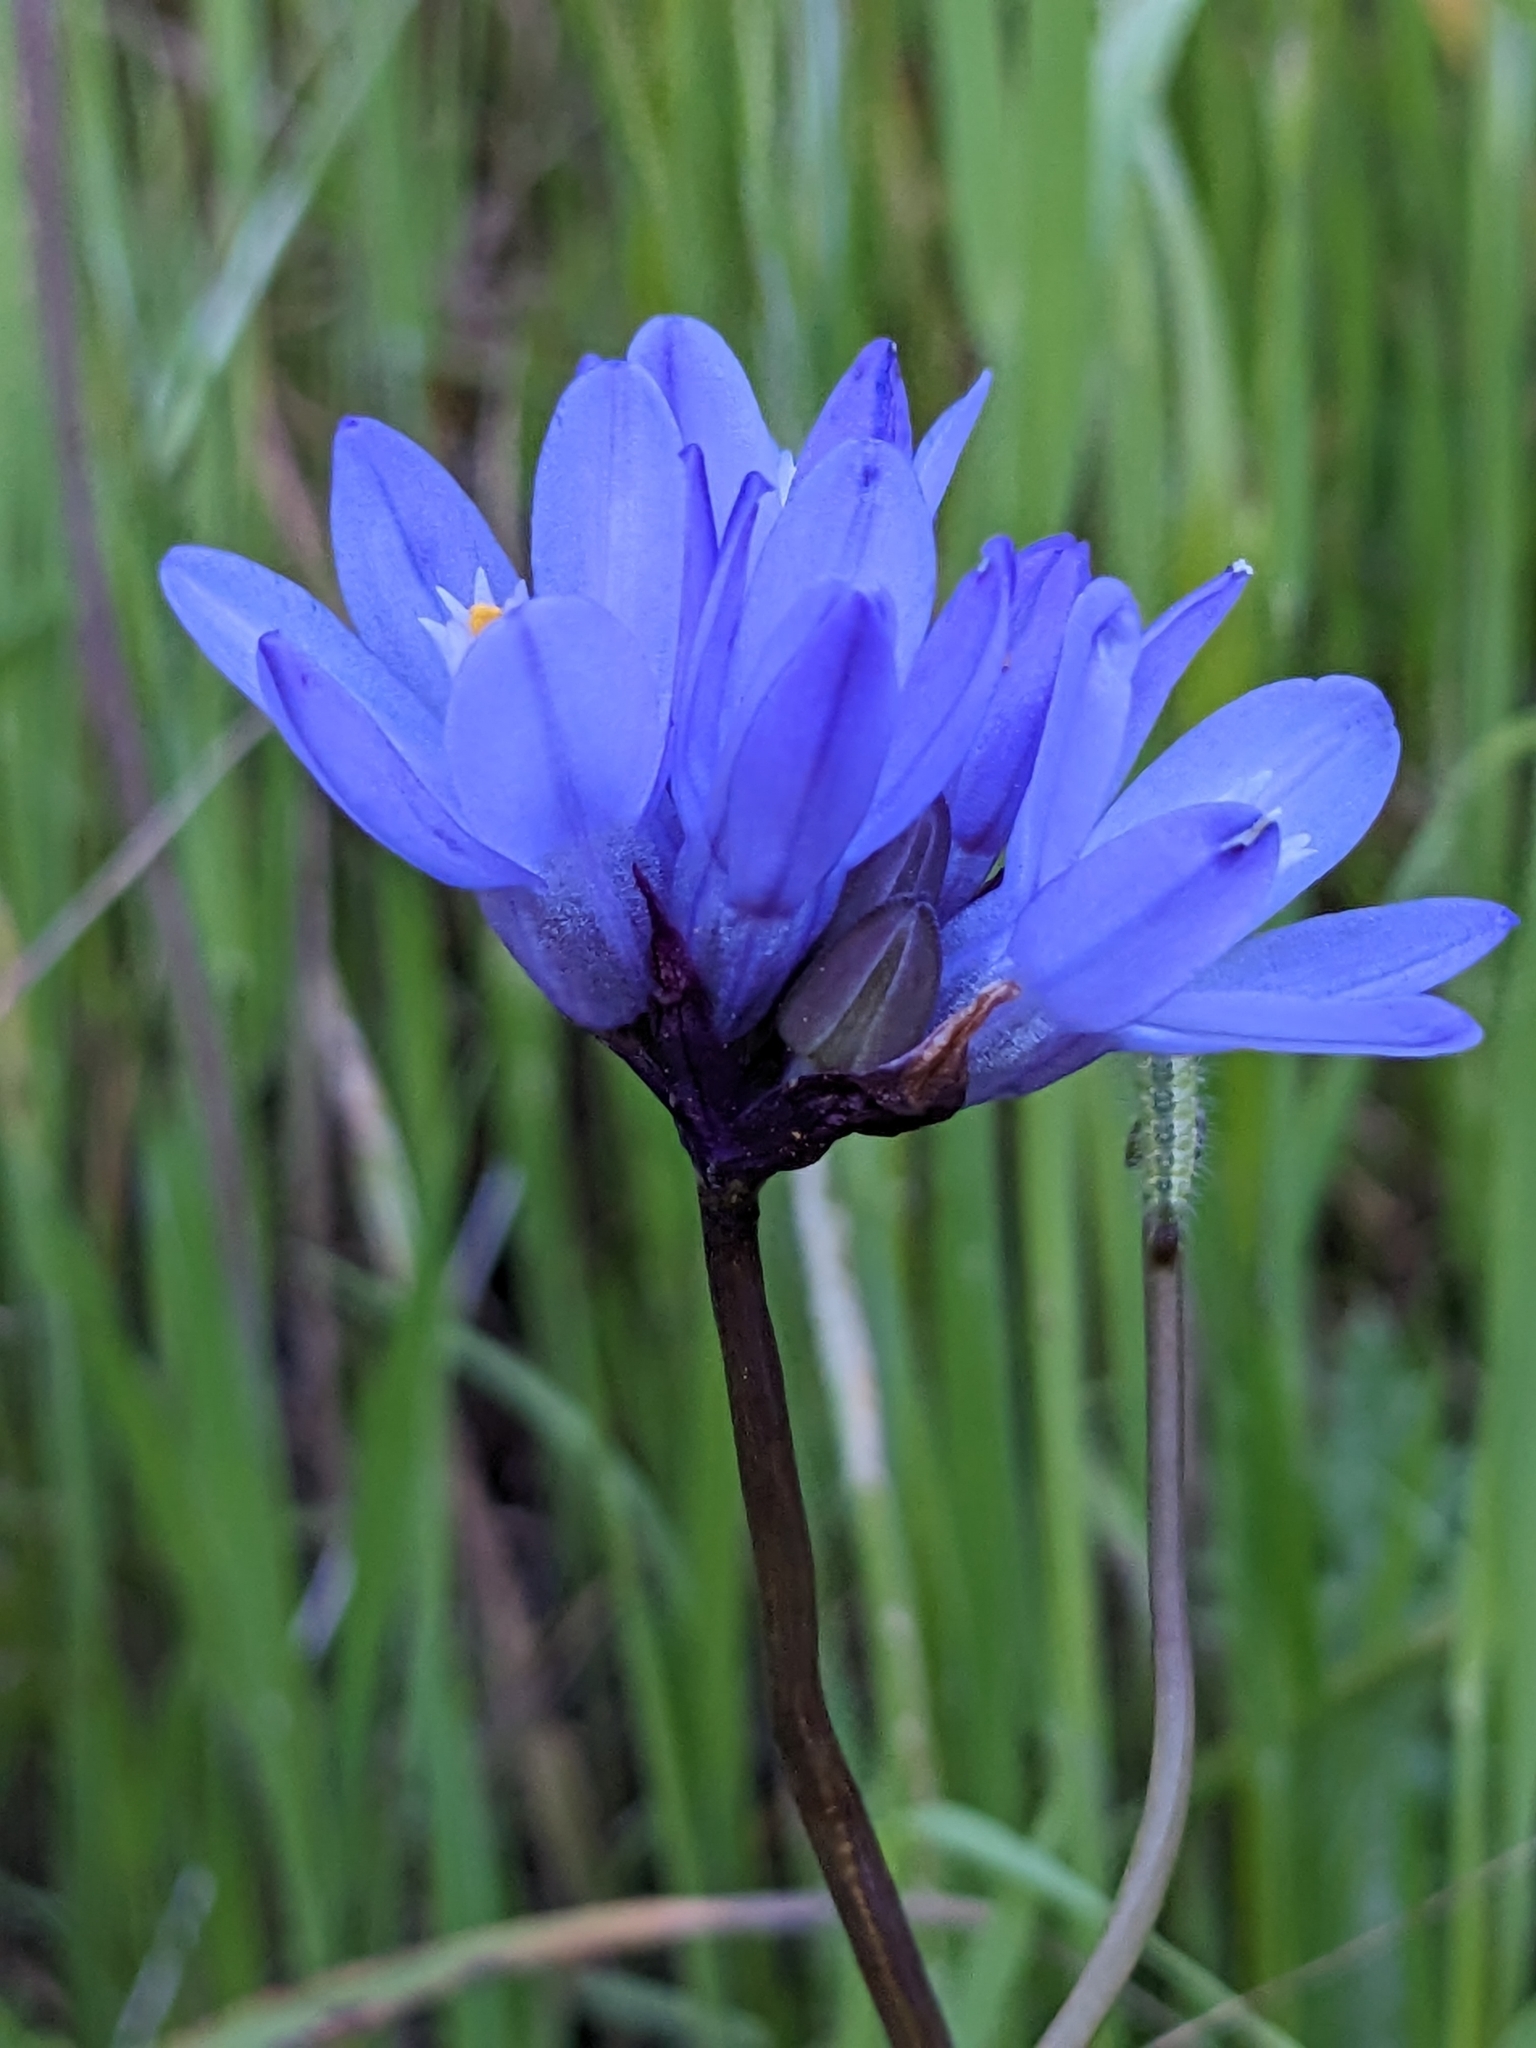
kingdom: Plantae
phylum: Tracheophyta
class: Liliopsida
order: Asparagales
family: Asparagaceae
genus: Dipterostemon
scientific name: Dipterostemon capitatus
